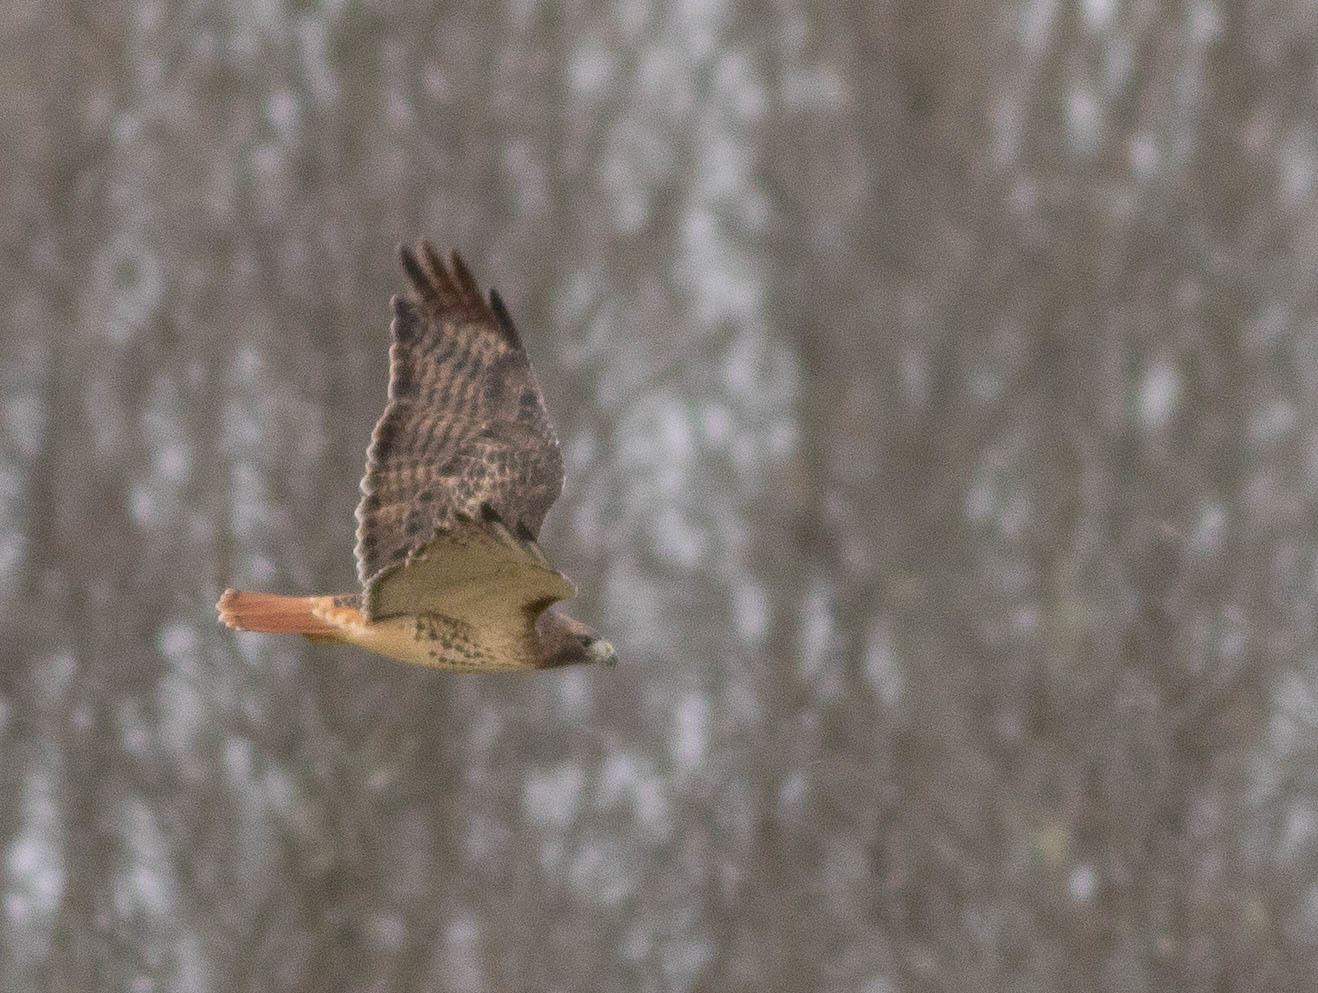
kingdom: Animalia
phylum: Chordata
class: Aves
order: Accipitriformes
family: Accipitridae
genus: Buteo
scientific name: Buteo jamaicensis
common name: Red-tailed hawk
